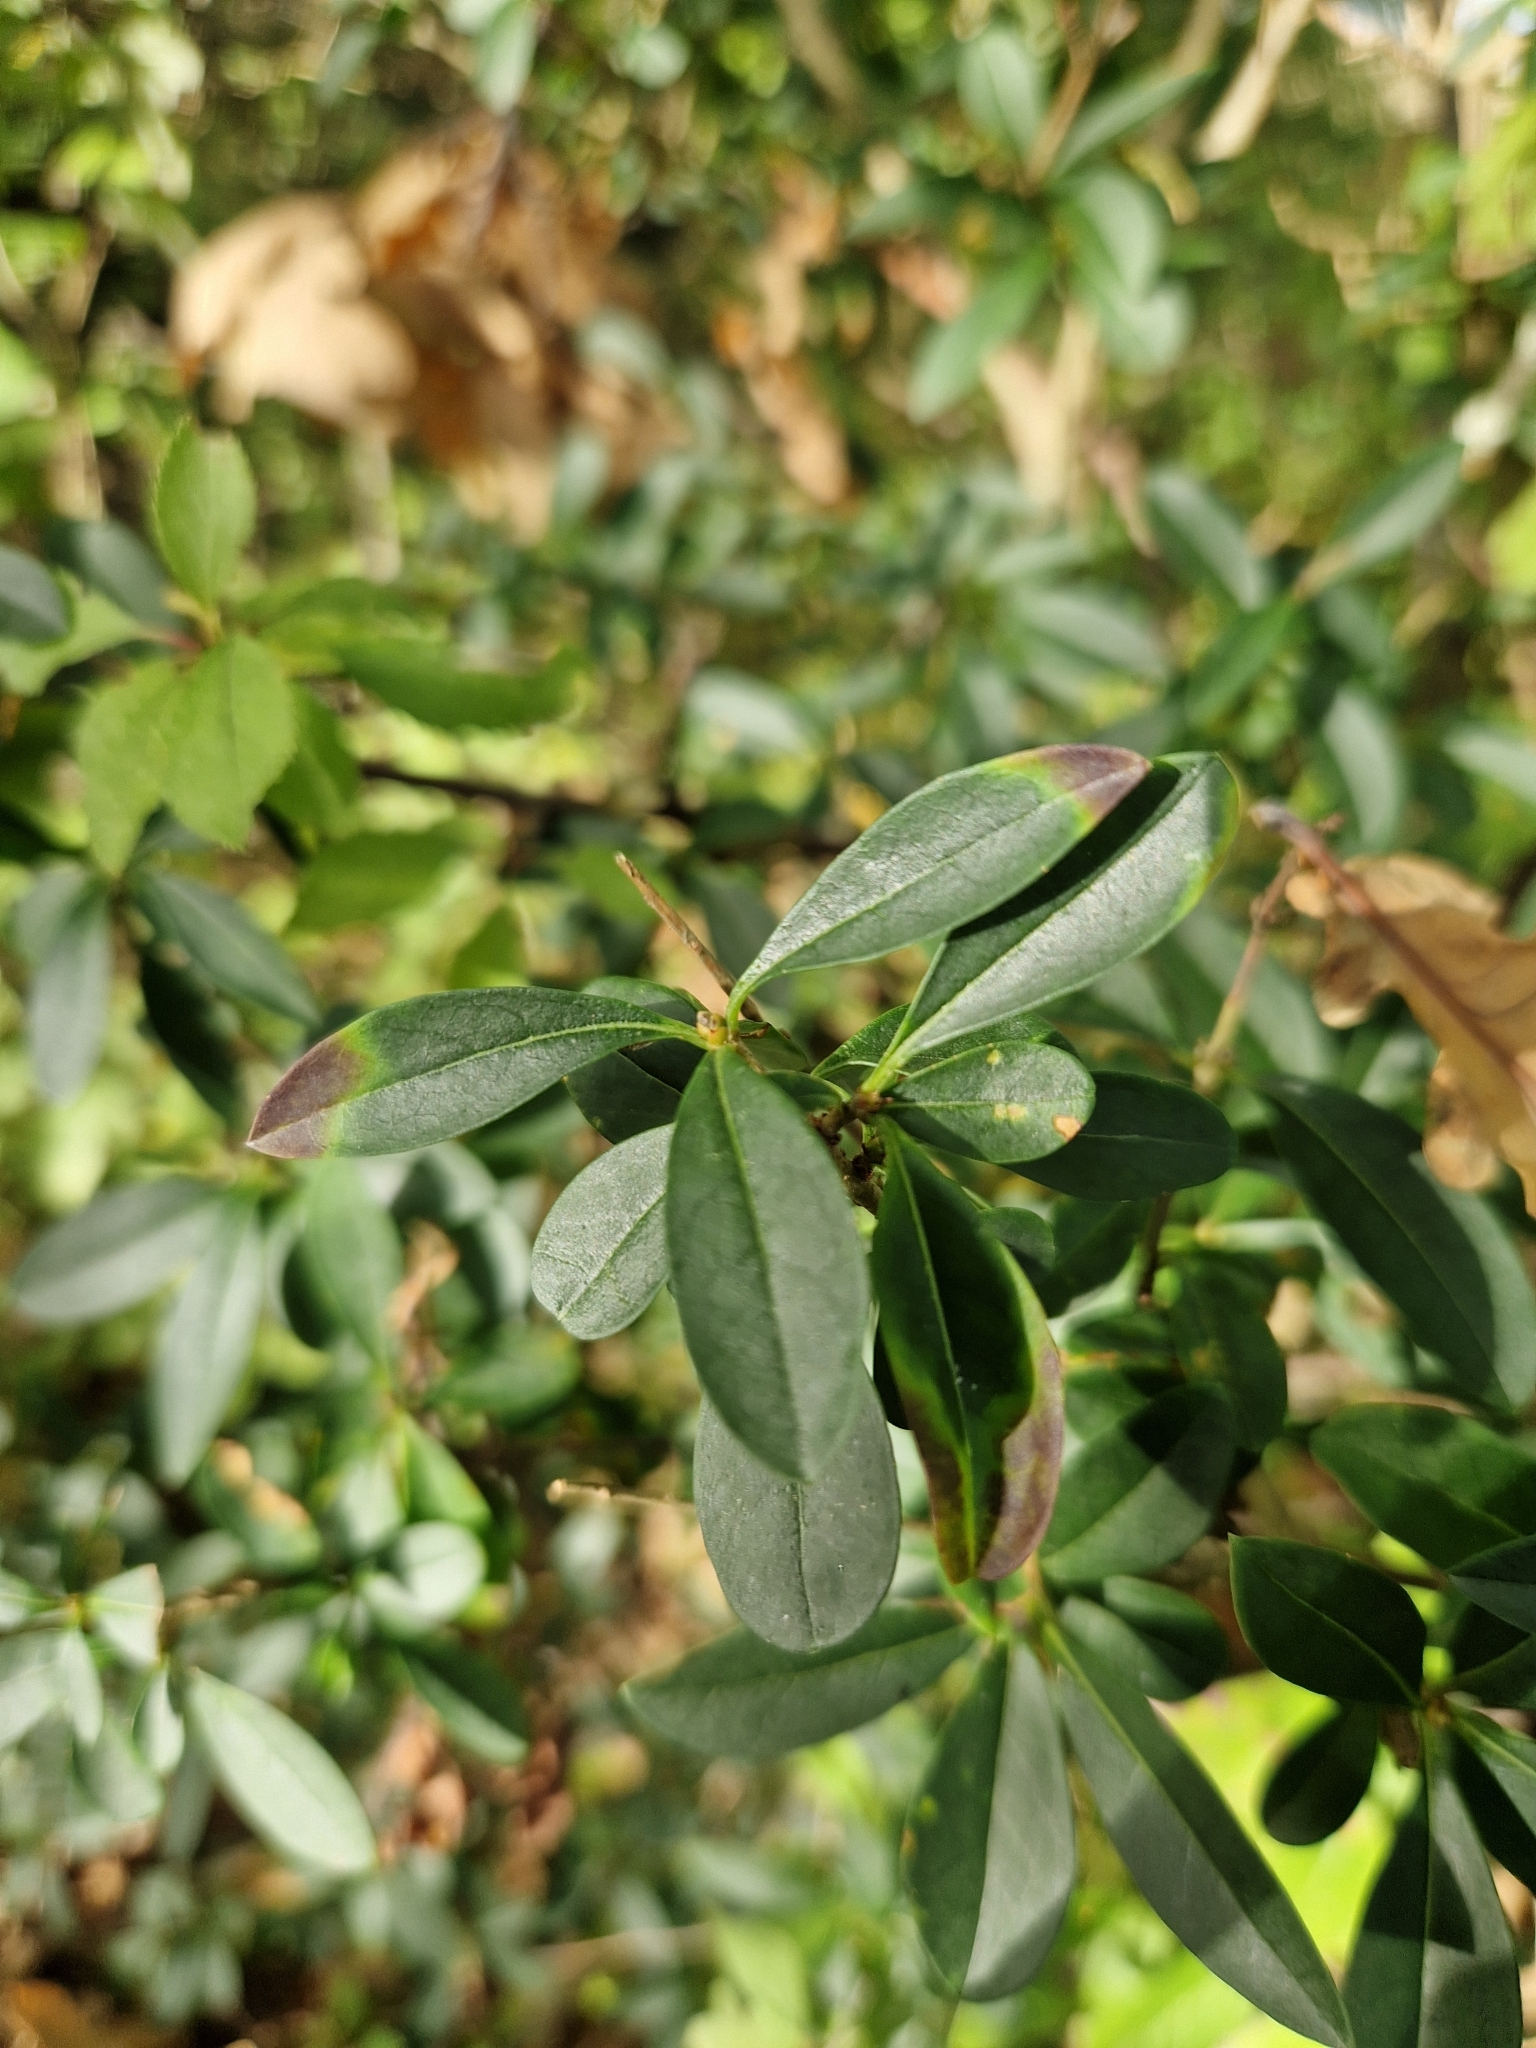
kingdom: Plantae
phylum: Tracheophyta
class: Magnoliopsida
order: Lamiales
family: Oleaceae
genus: Ligustrum
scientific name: Ligustrum vulgare
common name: Wild privet
